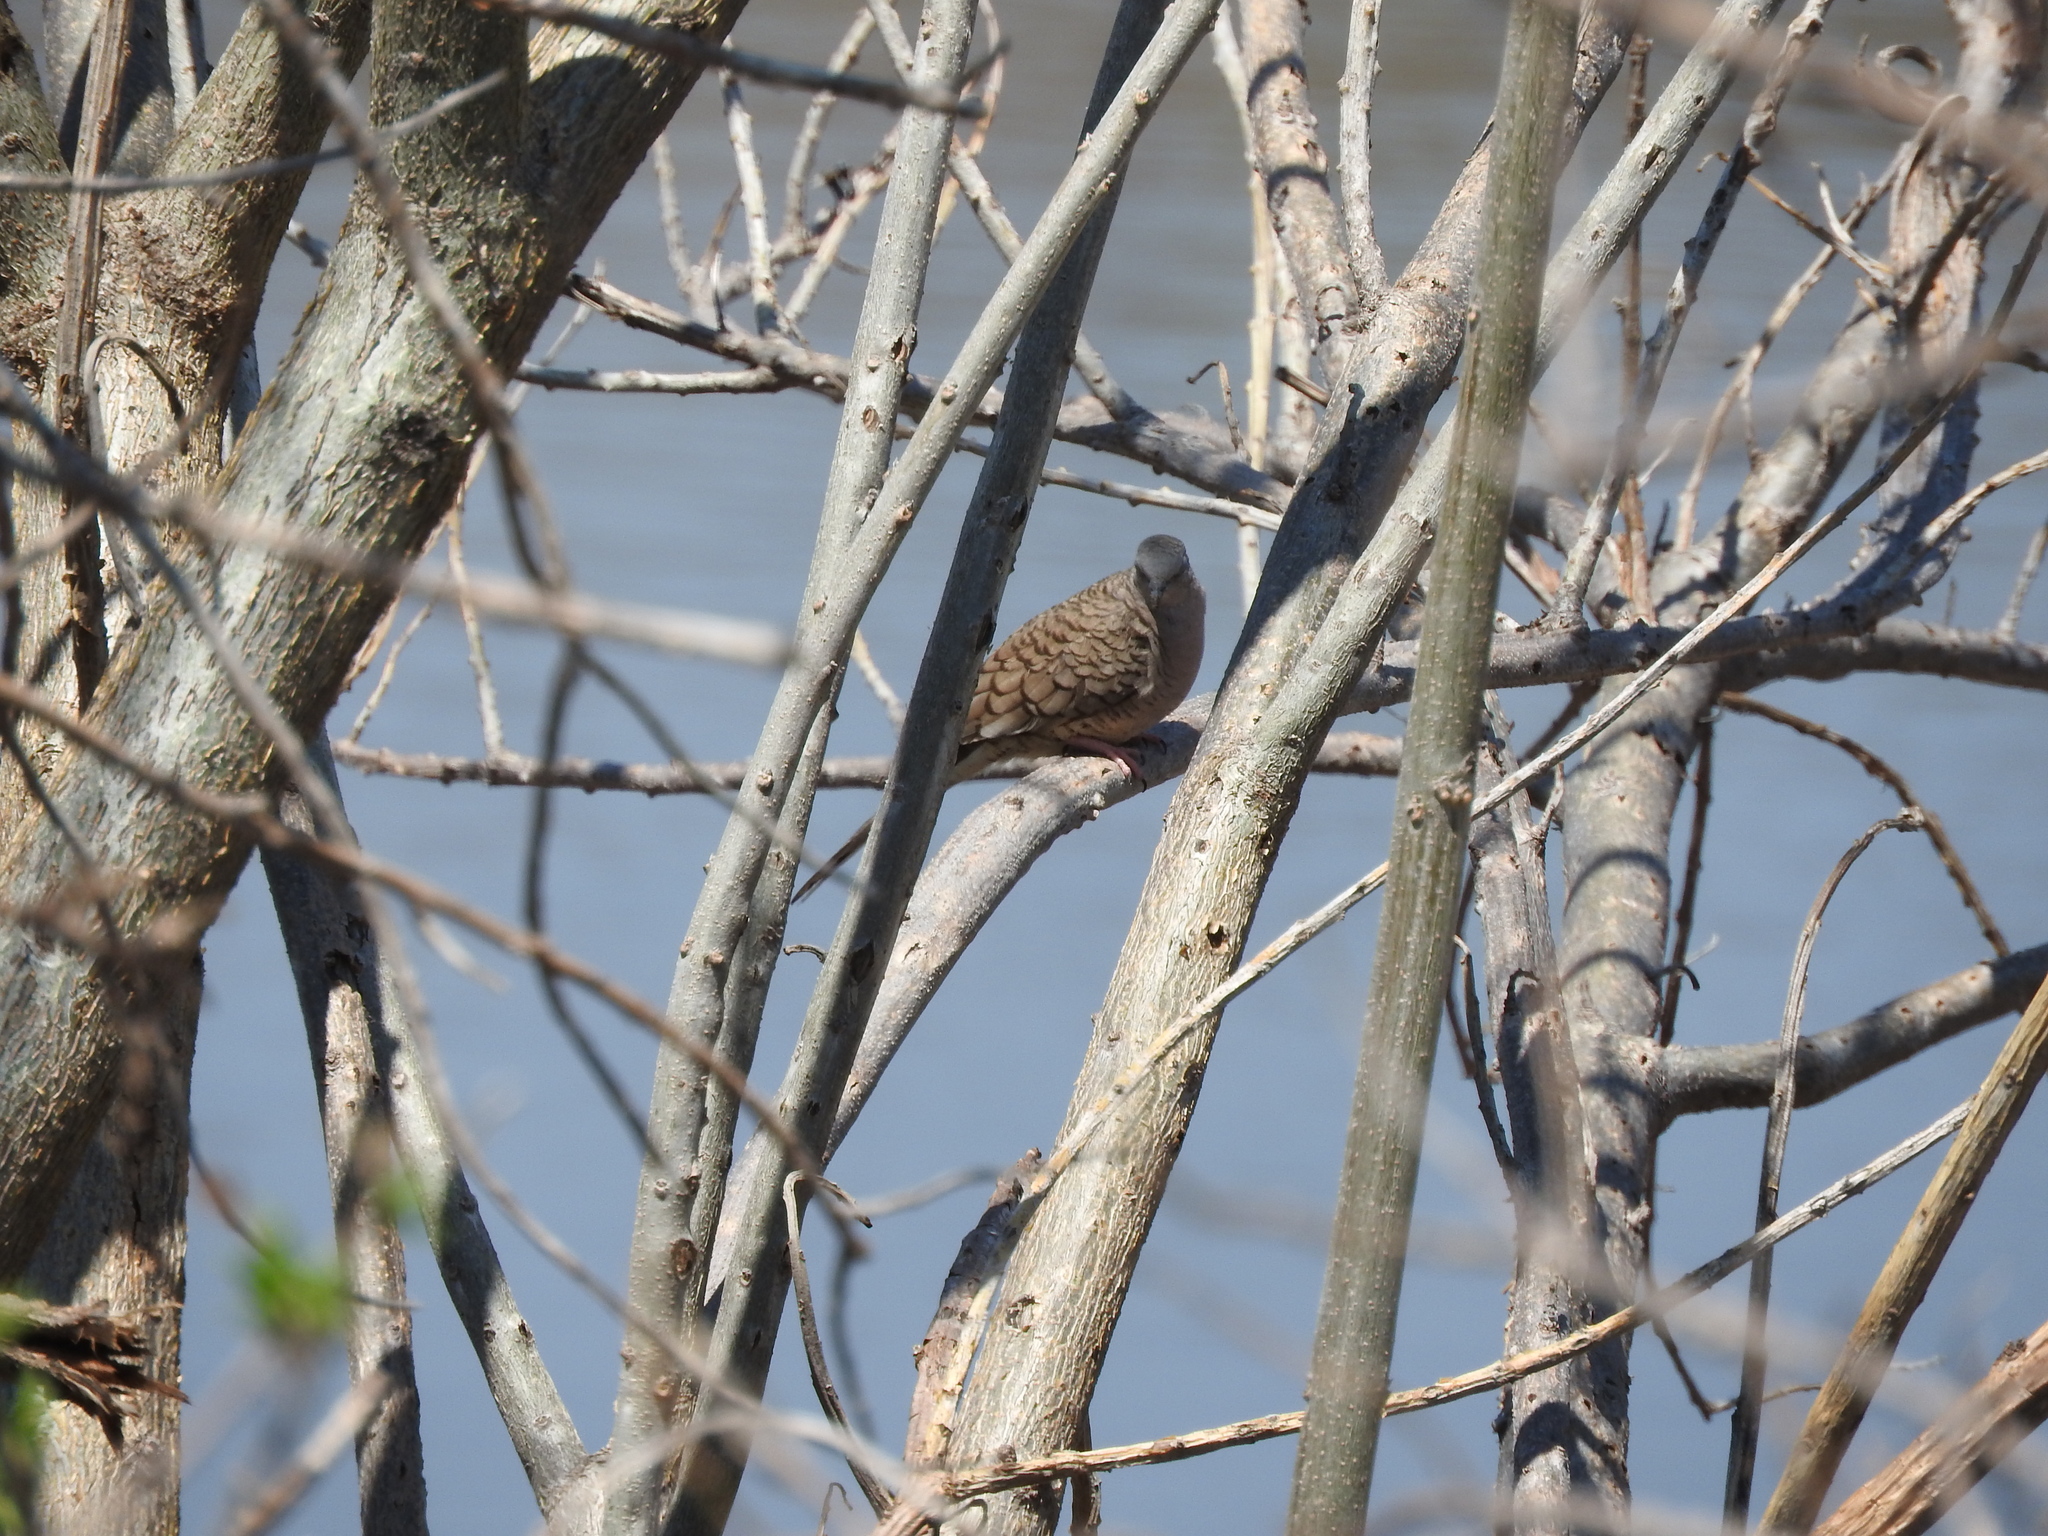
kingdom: Animalia
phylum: Chordata
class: Aves
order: Columbiformes
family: Columbidae
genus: Columbina
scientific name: Columbina inca
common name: Inca dove
